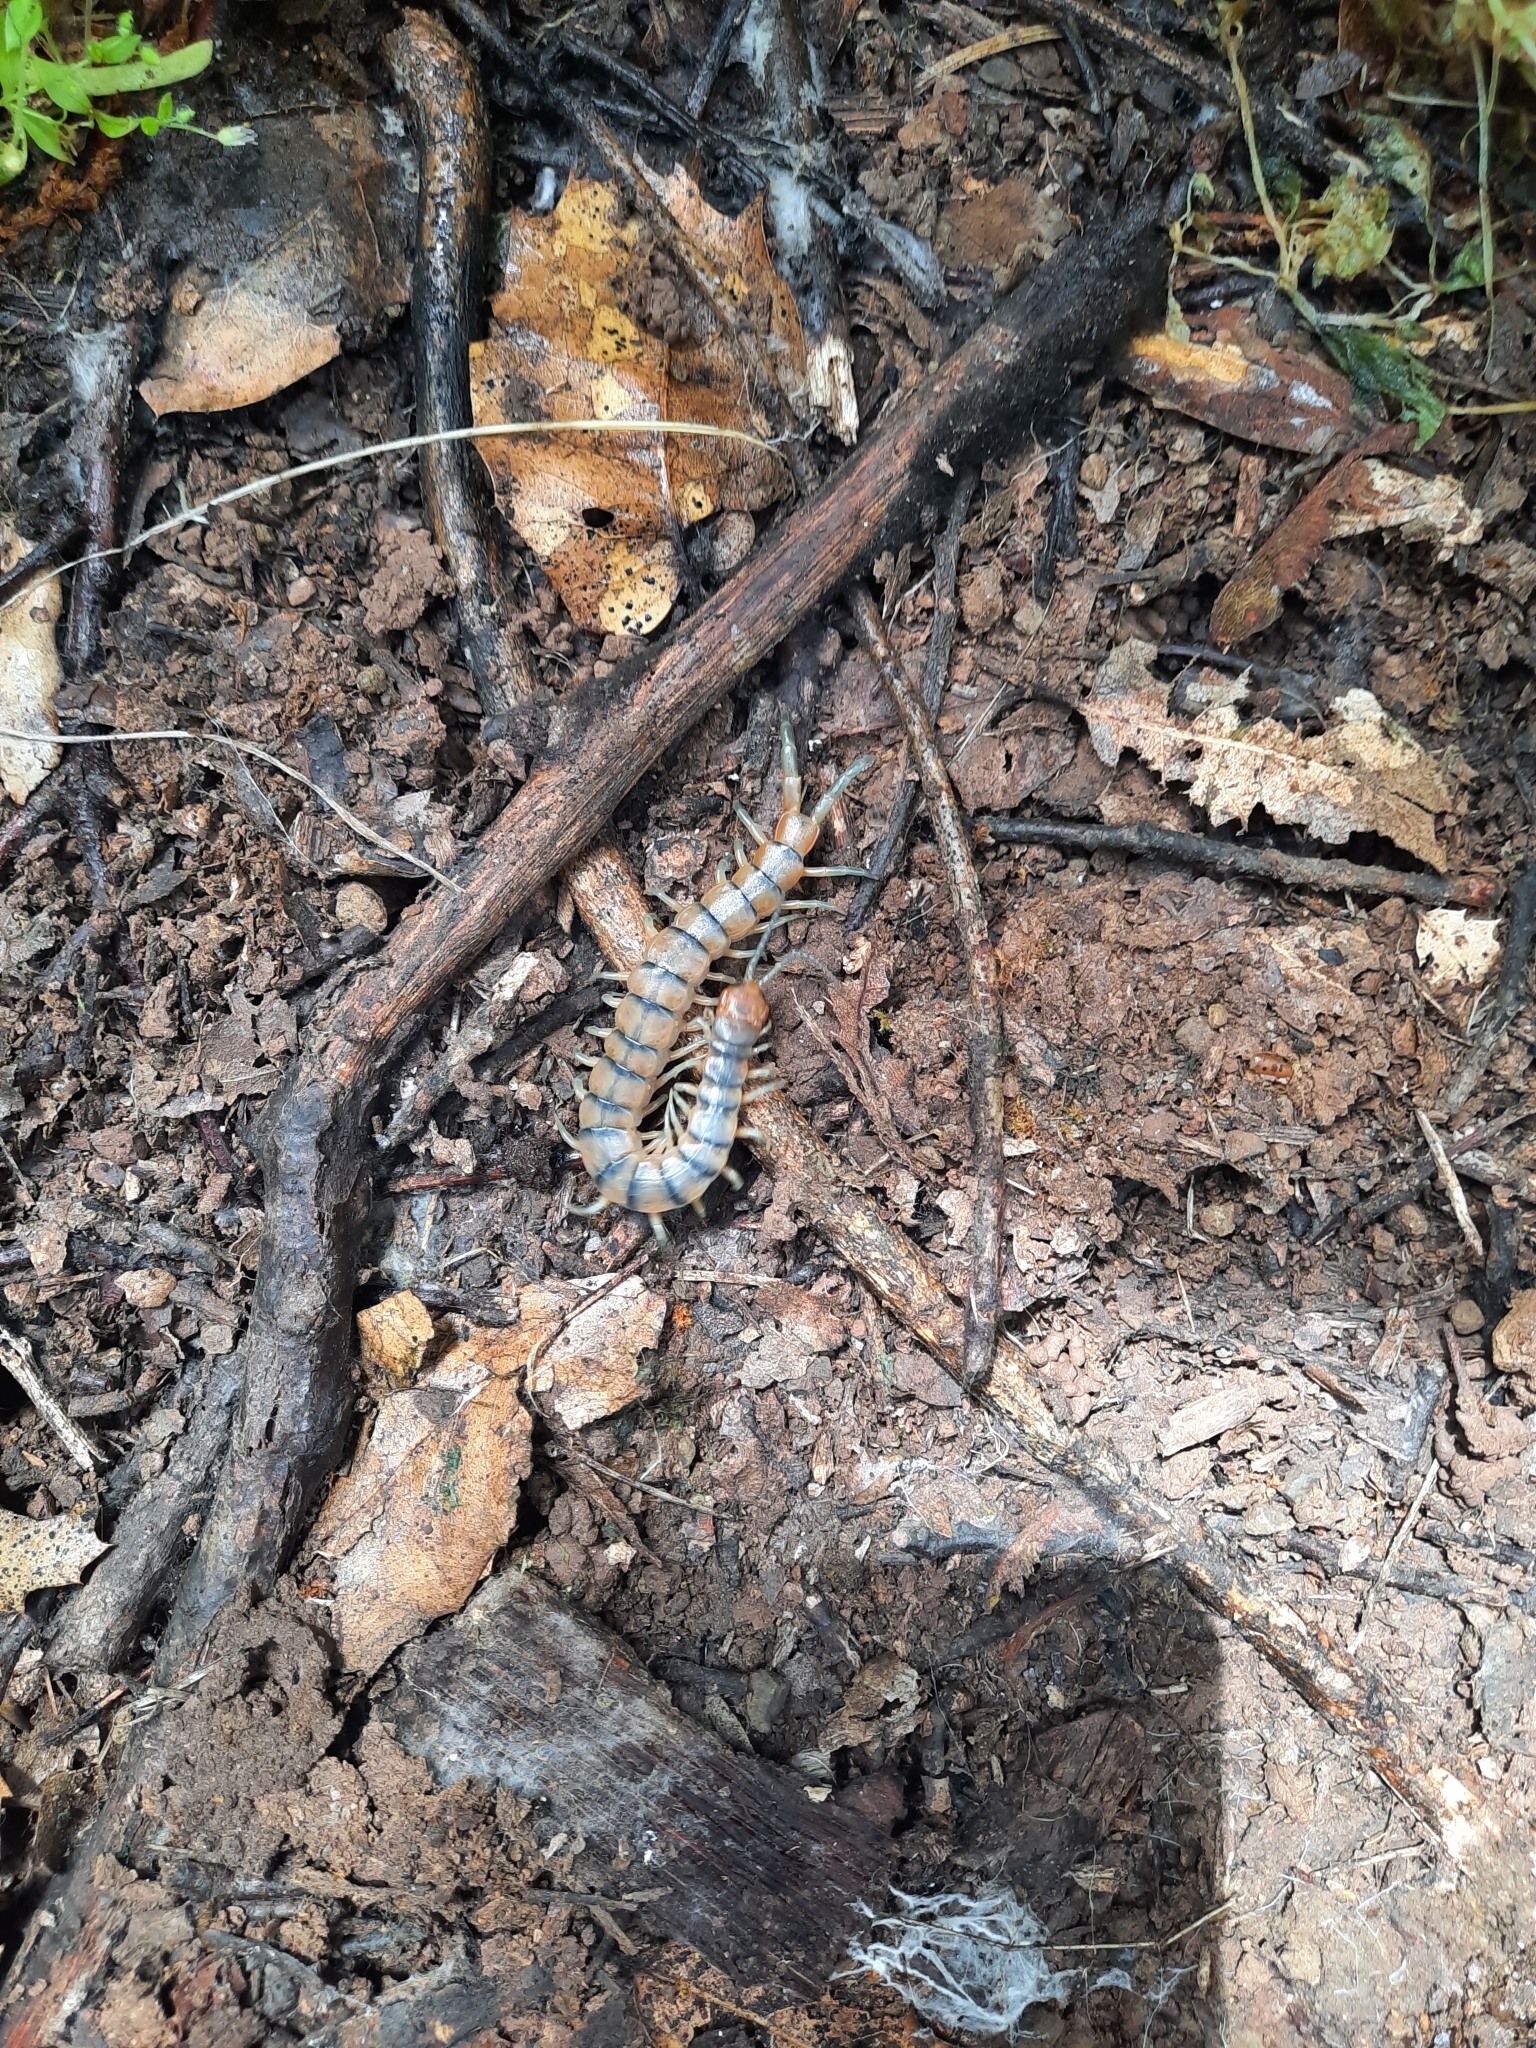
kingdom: Animalia
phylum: Arthropoda
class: Chilopoda
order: Scolopendromorpha
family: Scolopendridae
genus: Scolopendra
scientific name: Scolopendra polymorpha
